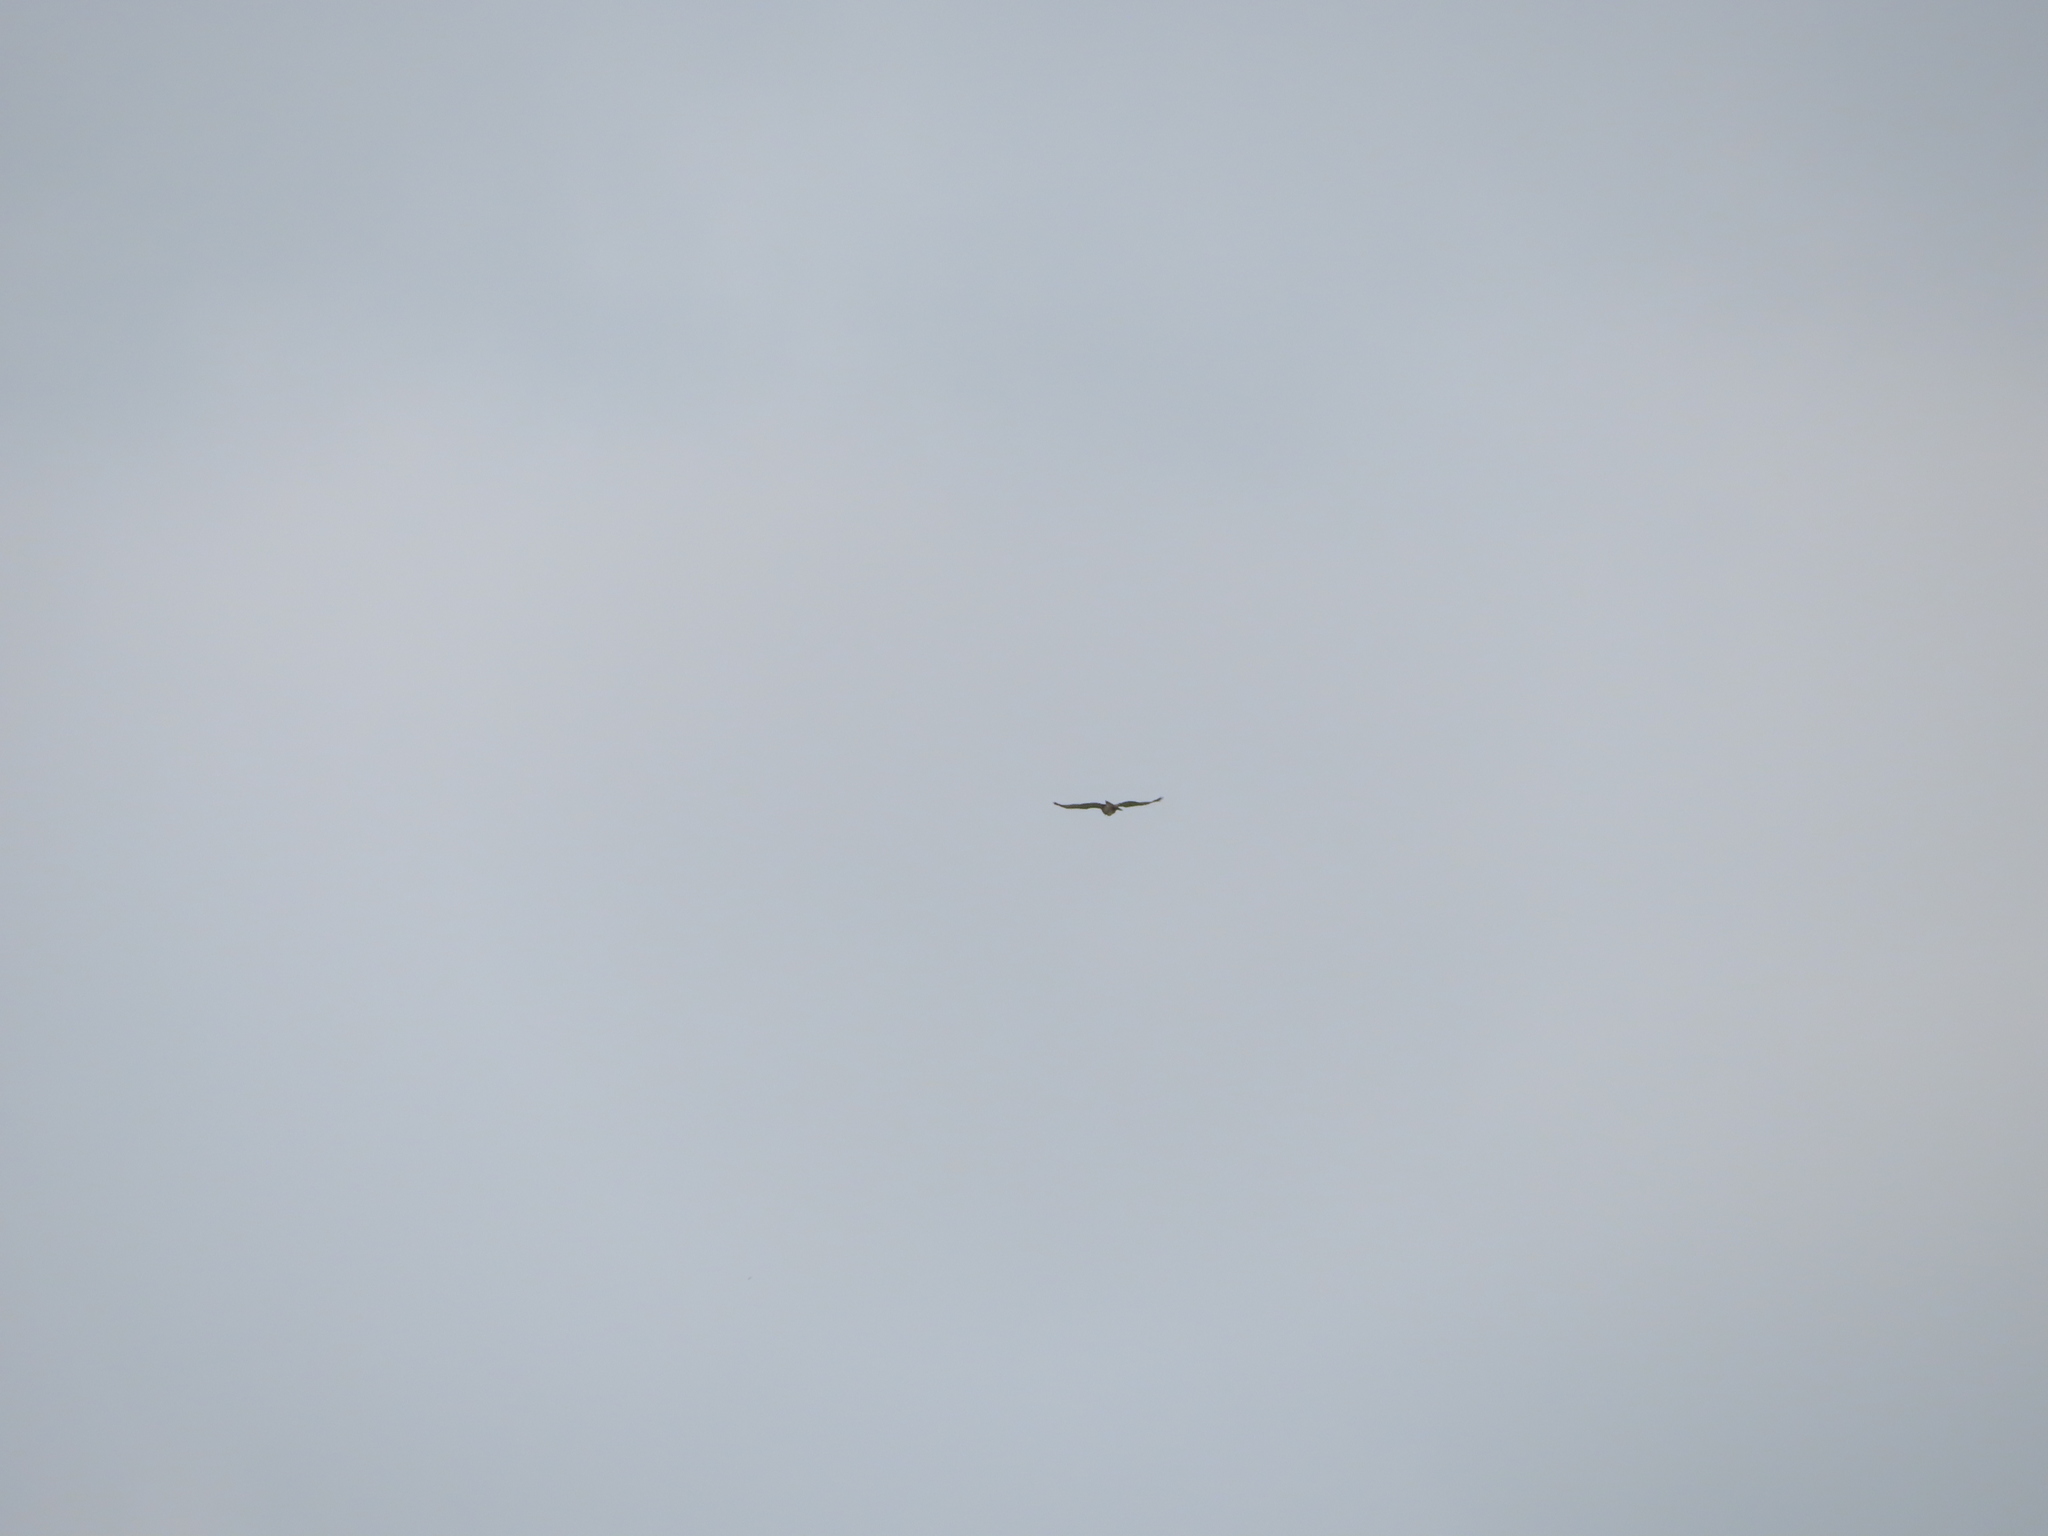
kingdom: Animalia
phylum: Chordata
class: Aves
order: Accipitriformes
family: Accipitridae
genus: Buteo
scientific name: Buteo jamaicensis
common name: Red-tailed hawk
